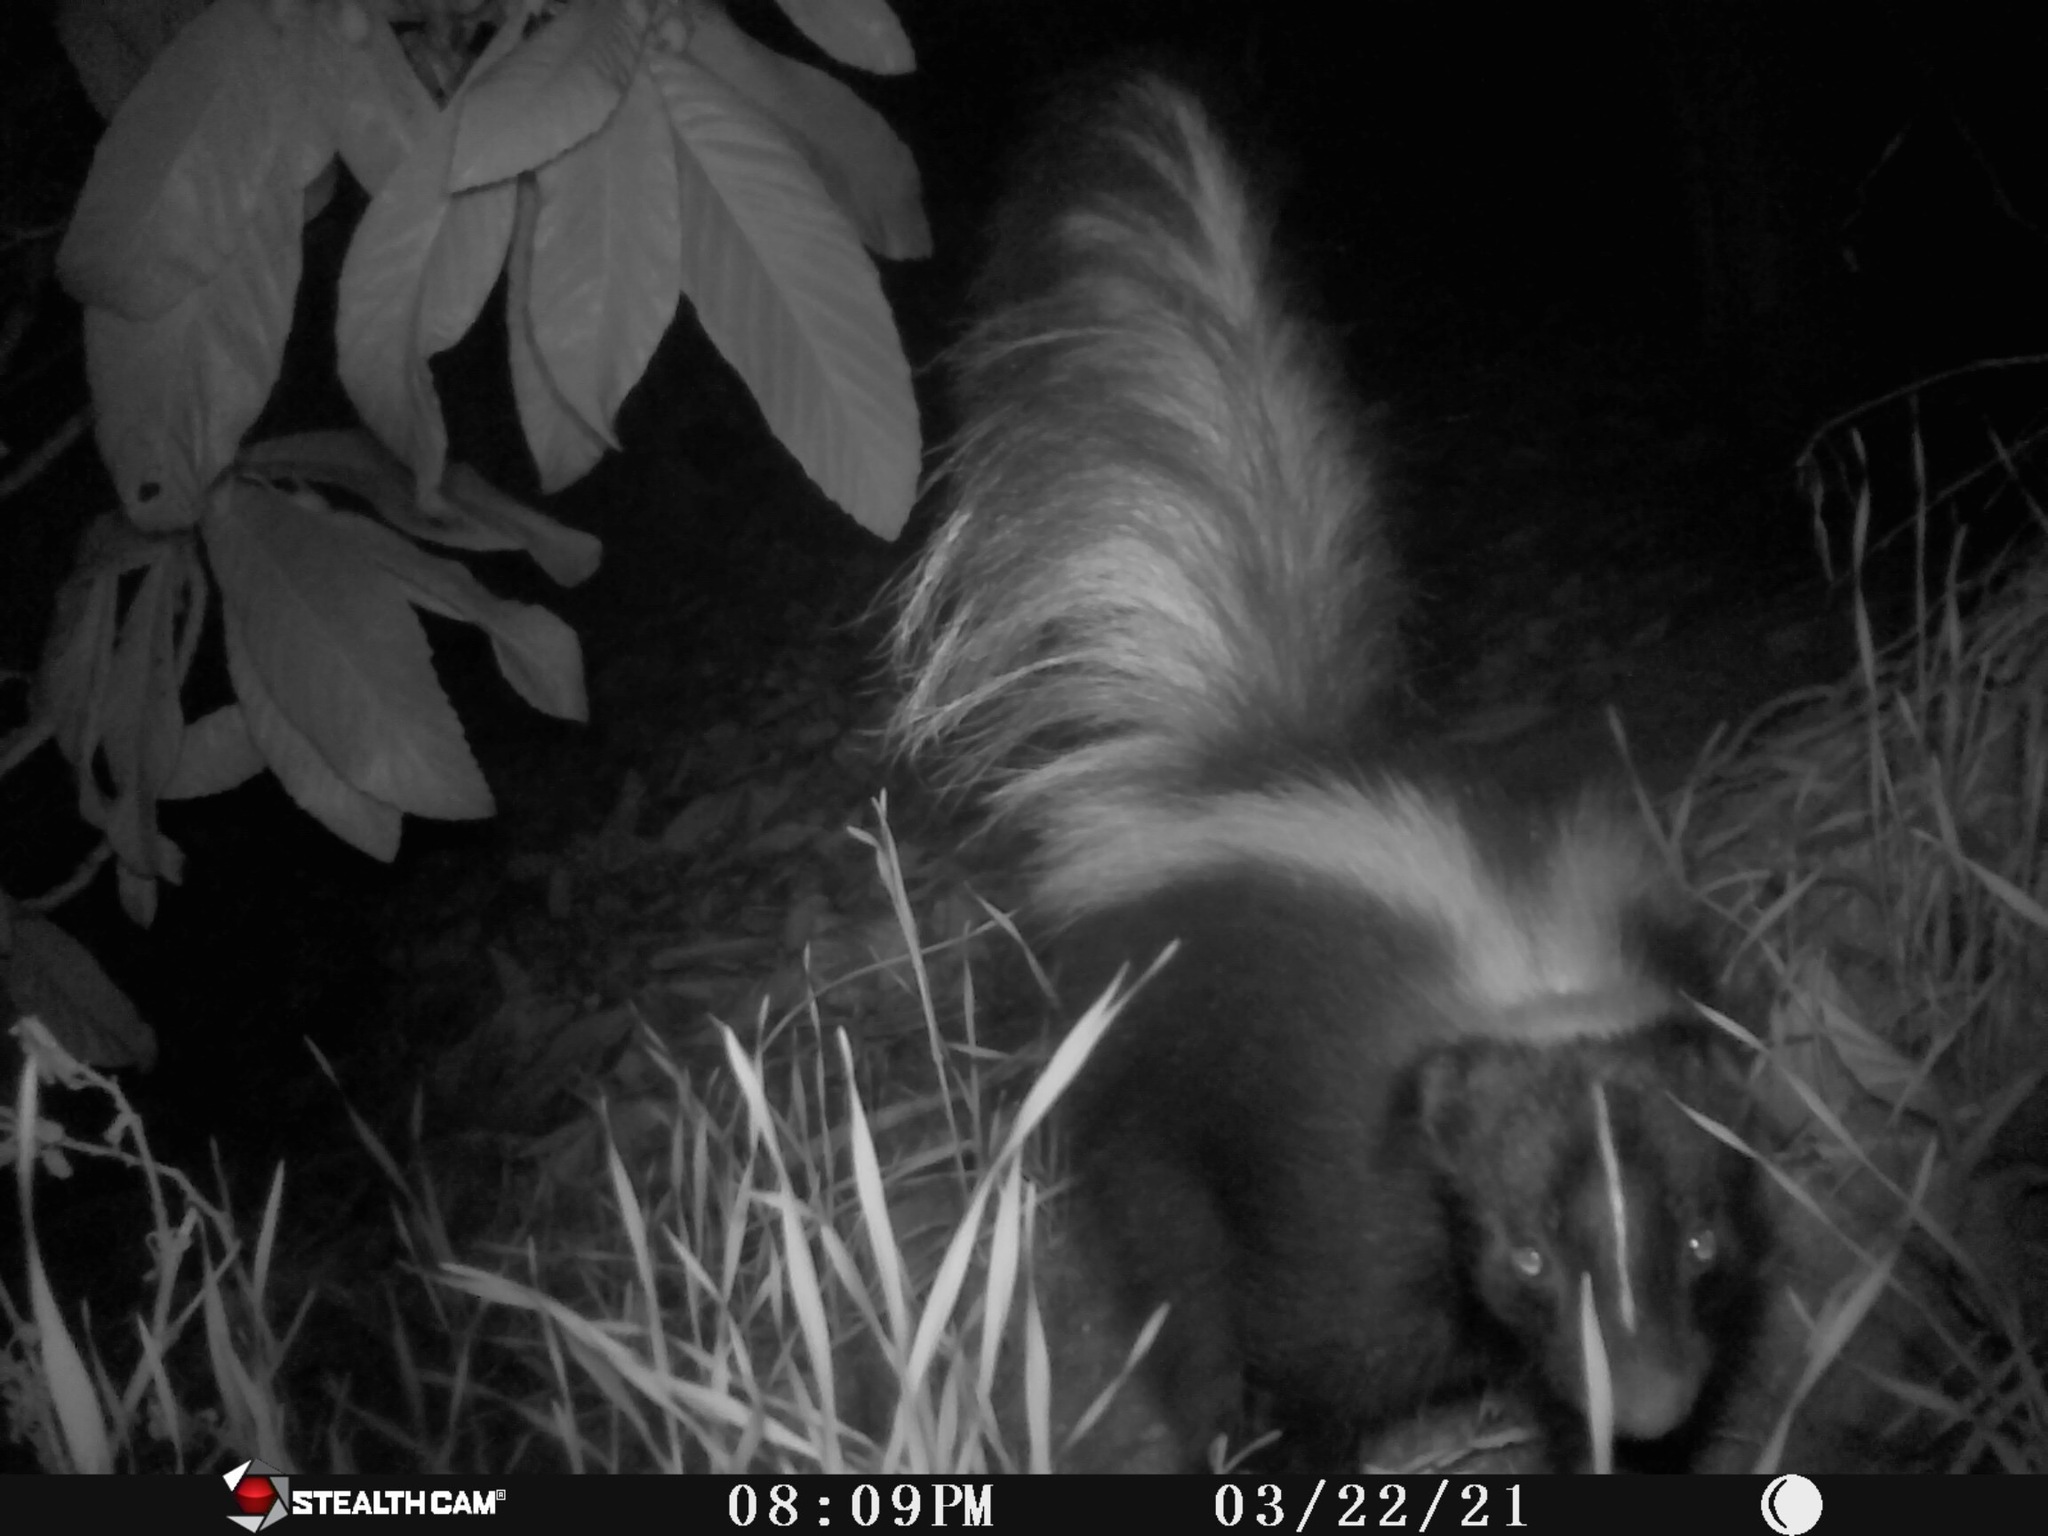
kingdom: Animalia
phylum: Chordata
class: Mammalia
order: Carnivora
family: Mephitidae
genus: Mephitis
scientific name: Mephitis mephitis
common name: Striped skunk
